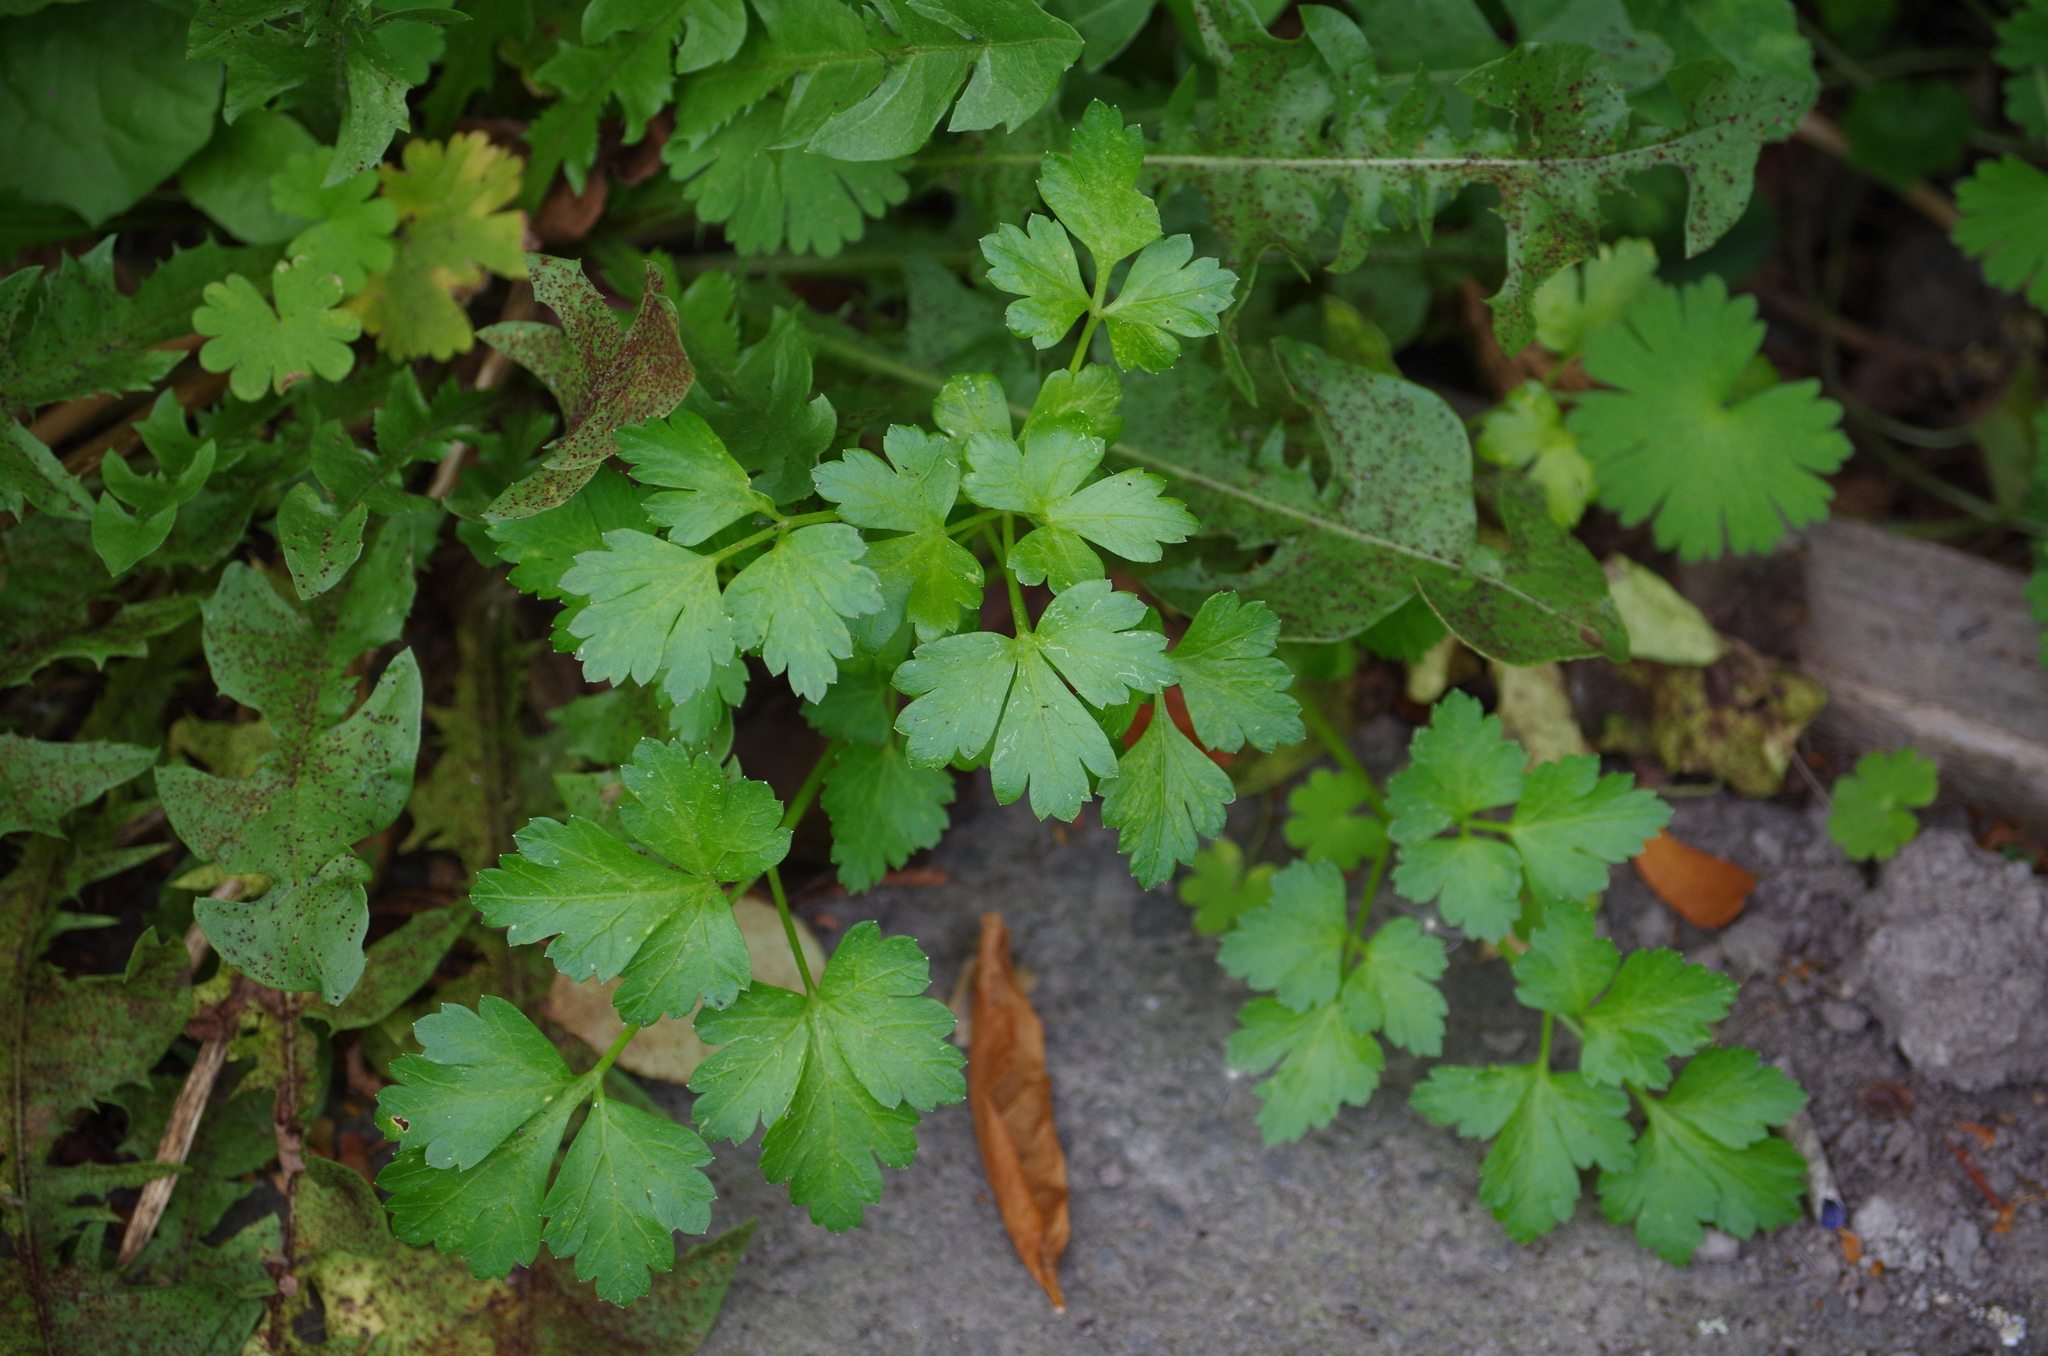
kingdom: Plantae
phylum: Tracheophyta
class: Magnoliopsida
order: Apiales
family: Apiaceae
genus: Petroselinum
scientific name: Petroselinum crispum
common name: Parsley
